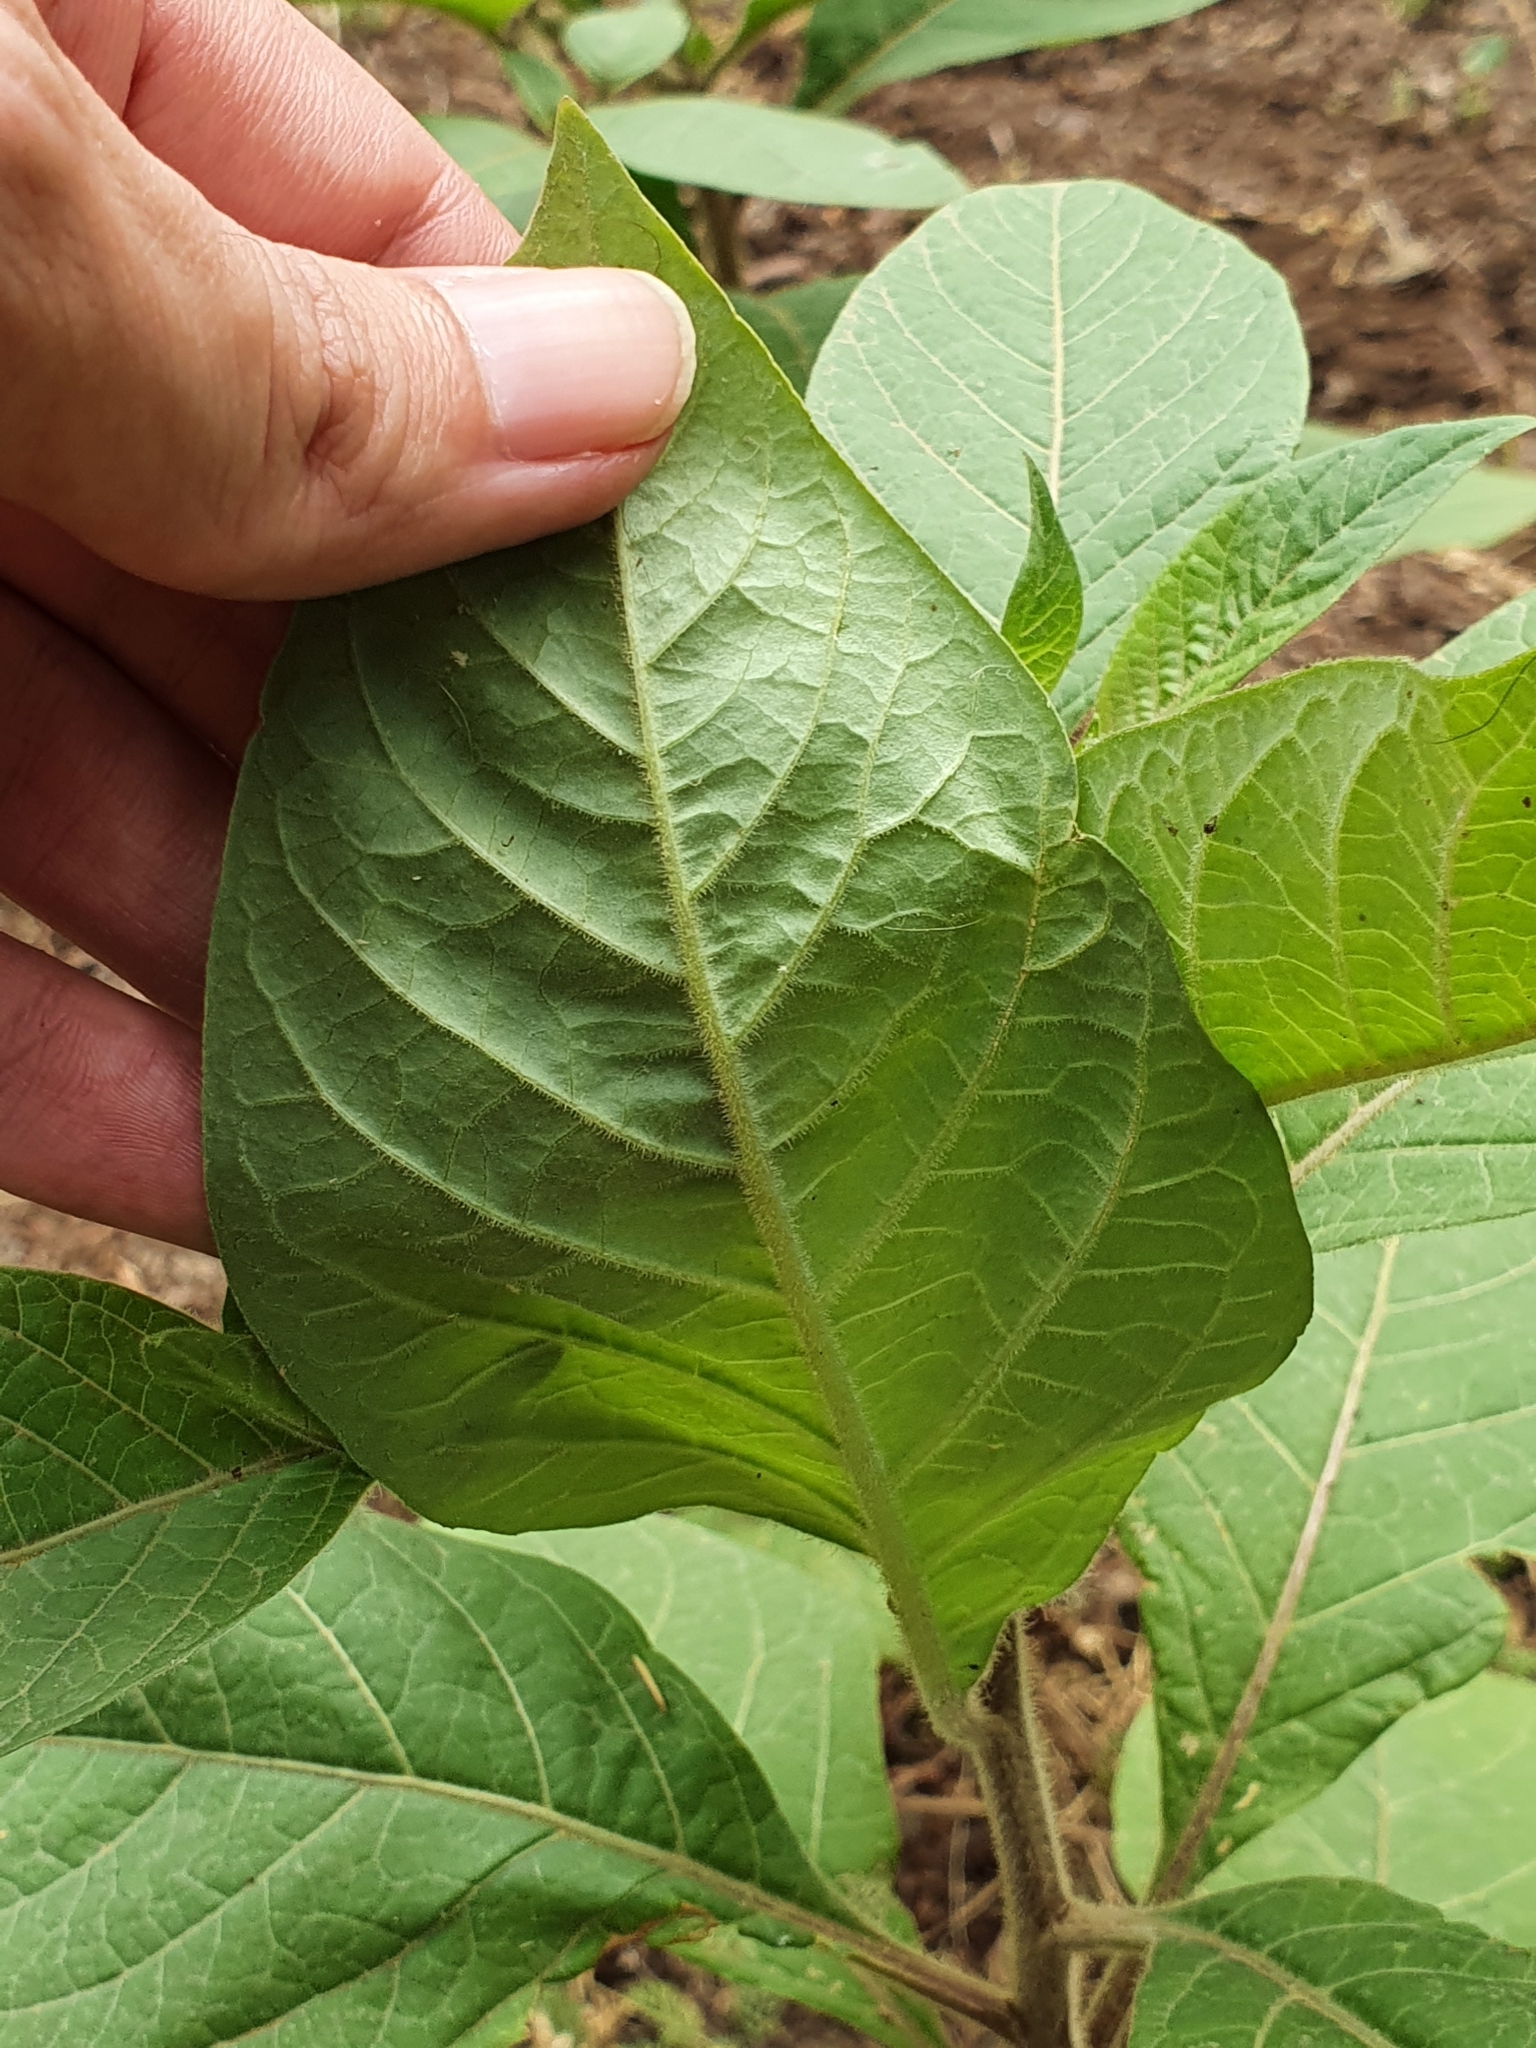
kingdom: Plantae
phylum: Tracheophyta
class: Magnoliopsida
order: Solanales
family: Solanaceae
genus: Atropa
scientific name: Atropa belladonna
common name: Deadly nightshade
